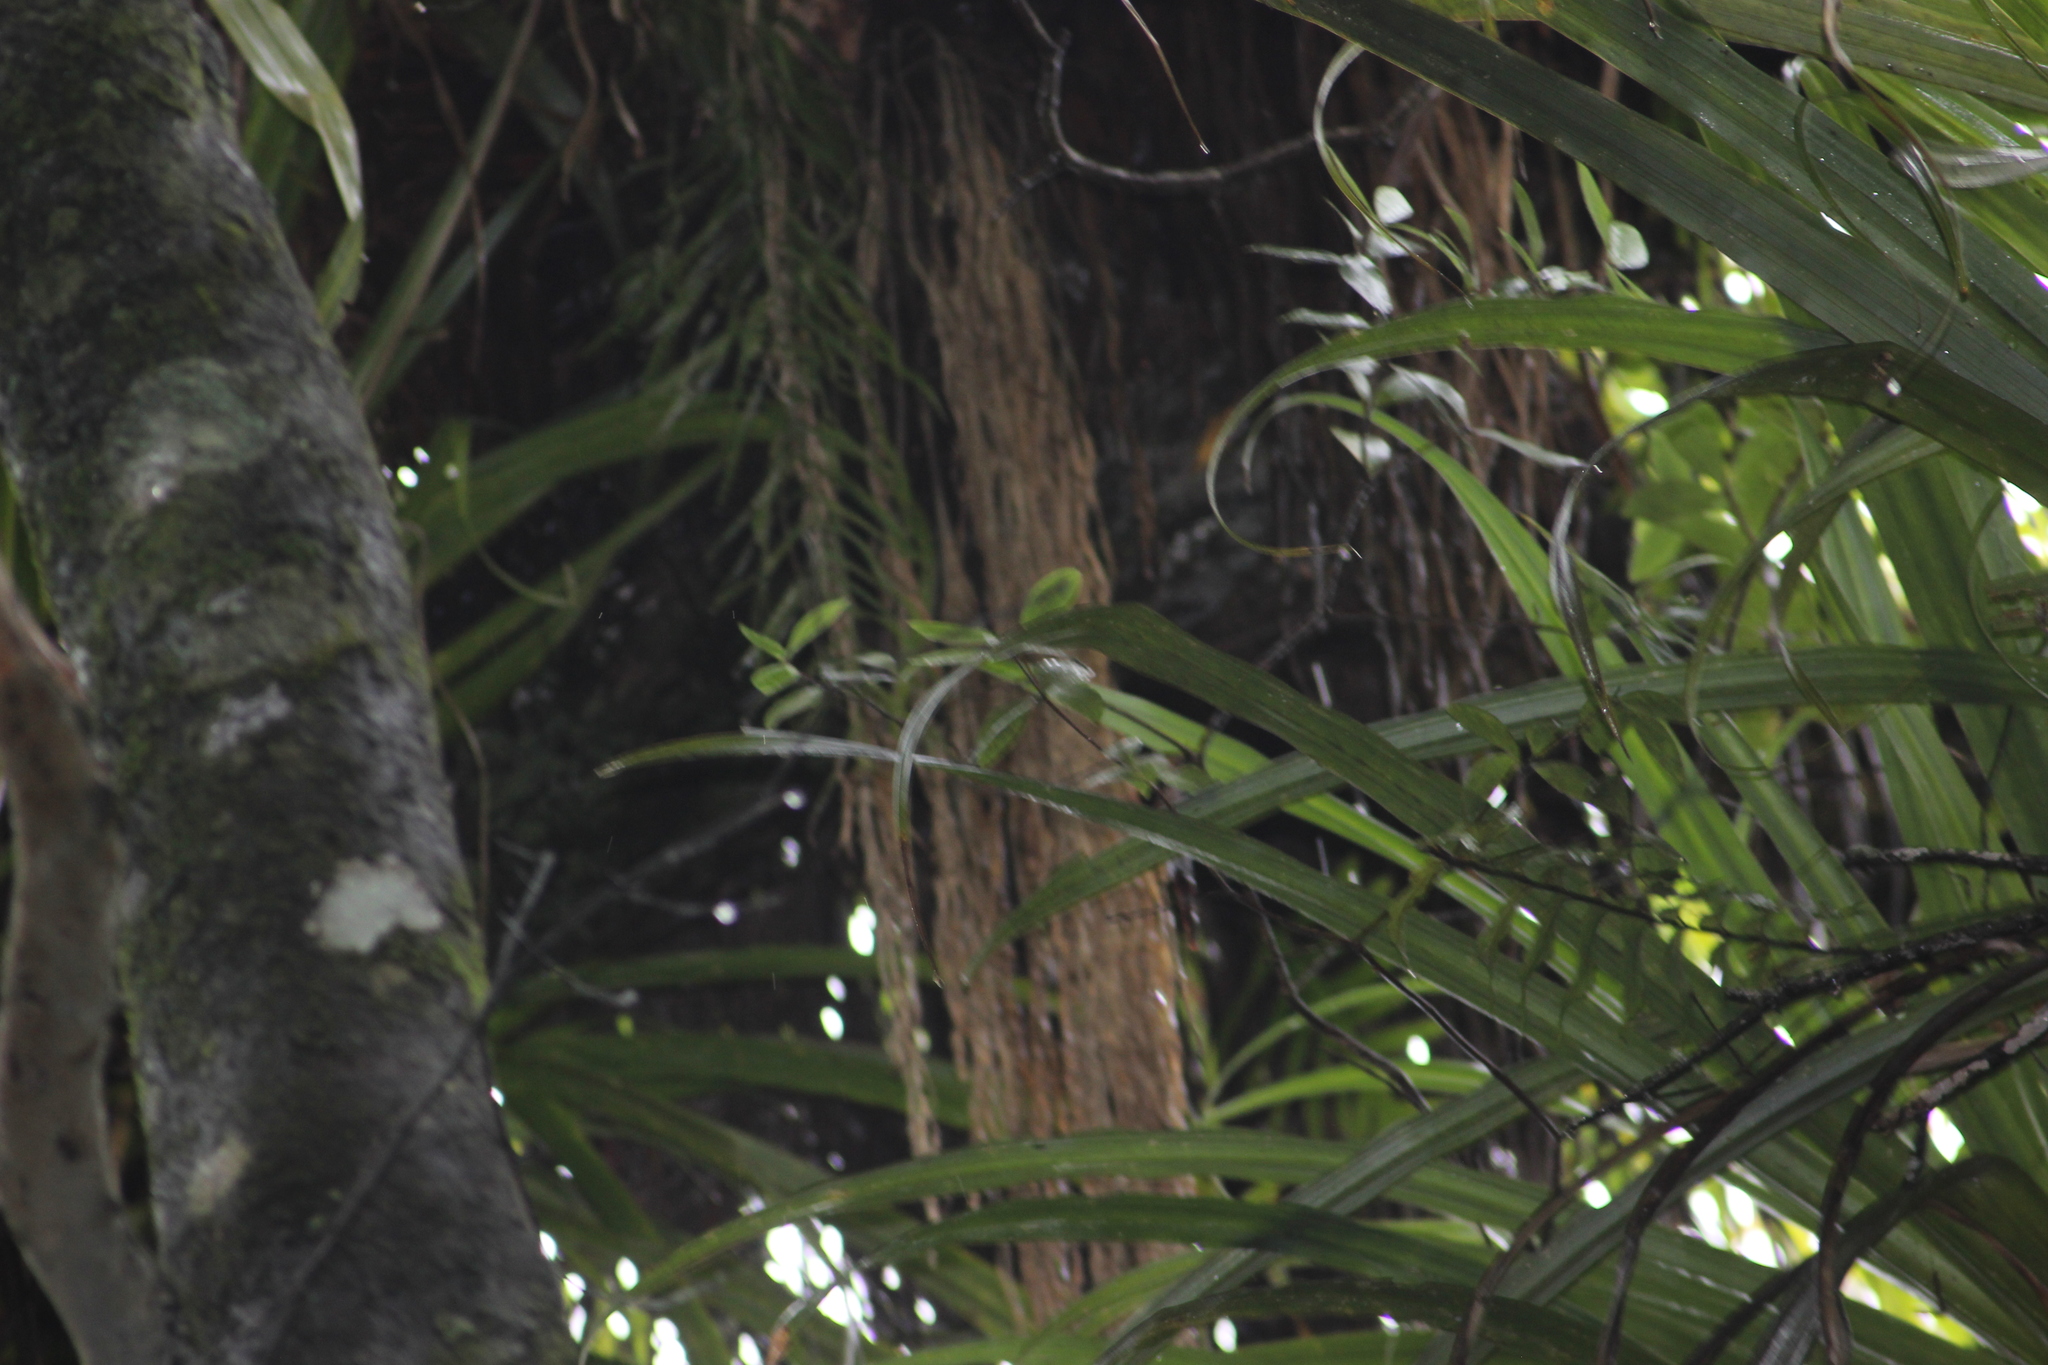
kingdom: Plantae
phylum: Tracheophyta
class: Magnoliopsida
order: Apiales
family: Pittosporaceae
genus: Pittosporum
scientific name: Pittosporum cornifolium
